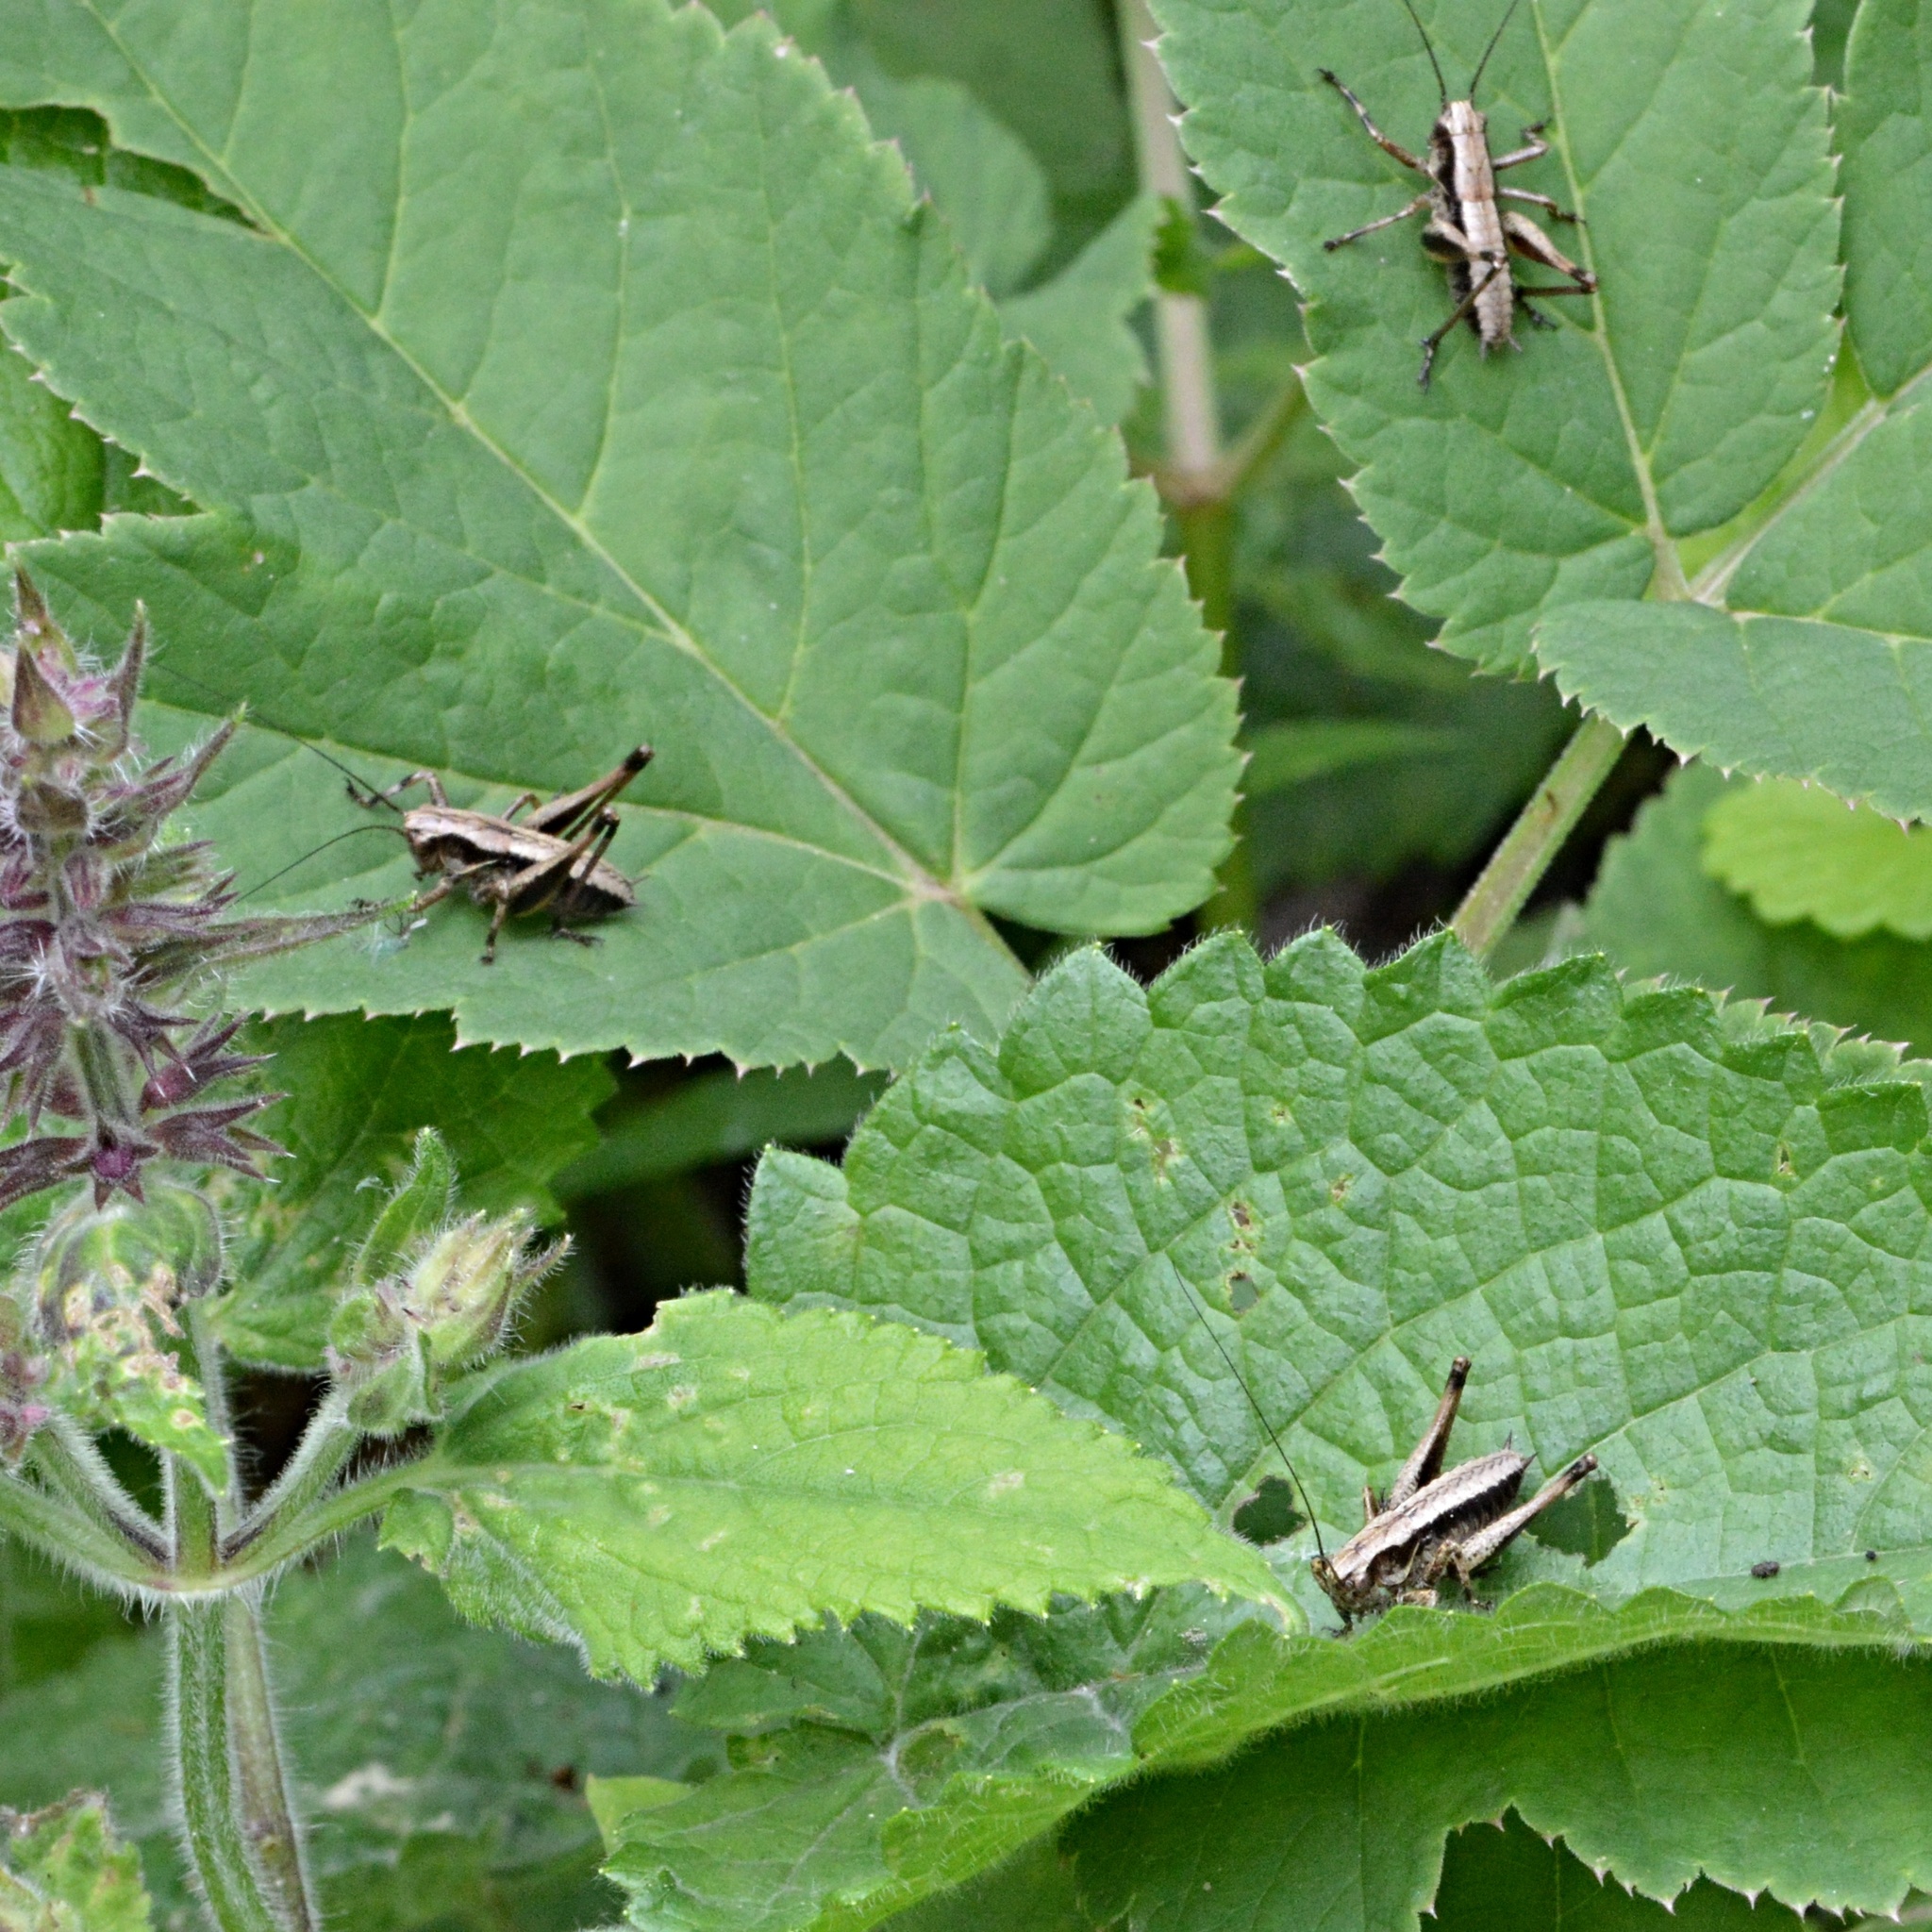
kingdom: Animalia
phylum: Arthropoda
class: Insecta
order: Orthoptera
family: Tettigoniidae
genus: Pholidoptera
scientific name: Pholidoptera griseoaptera
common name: Dark bush-cricket
